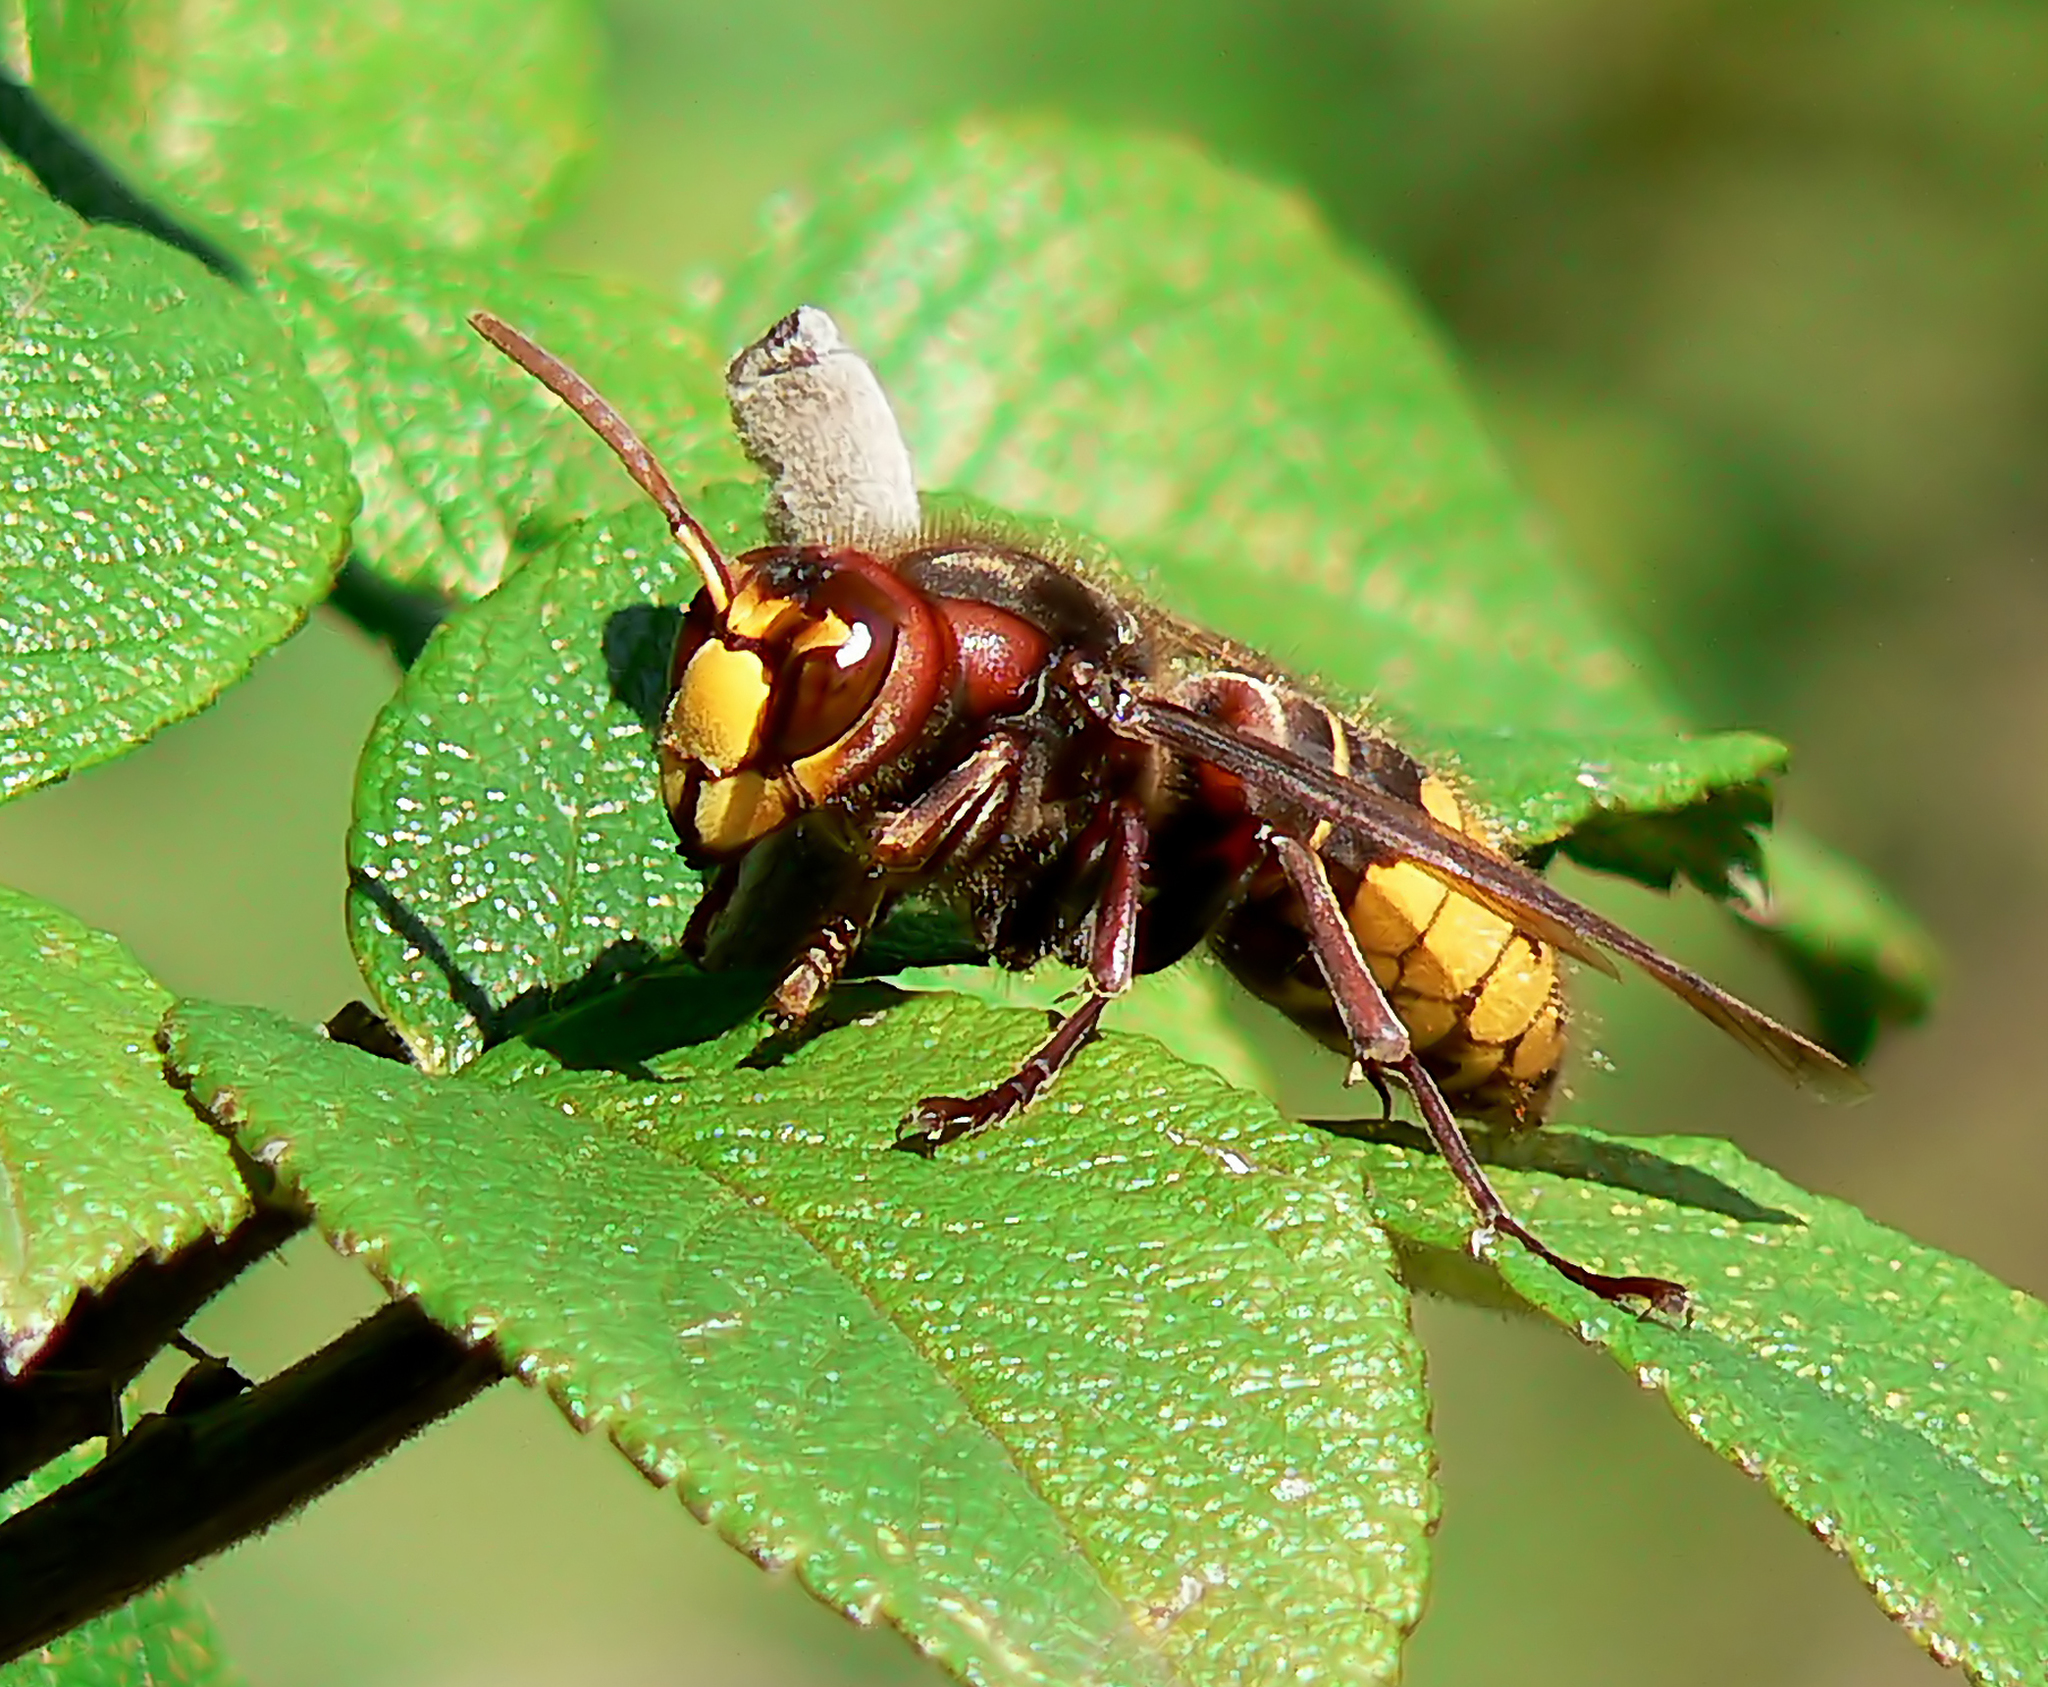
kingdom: Animalia
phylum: Arthropoda
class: Insecta
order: Hymenoptera
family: Vespidae
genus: Vespa
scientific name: Vespa crabro
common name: Hornet
